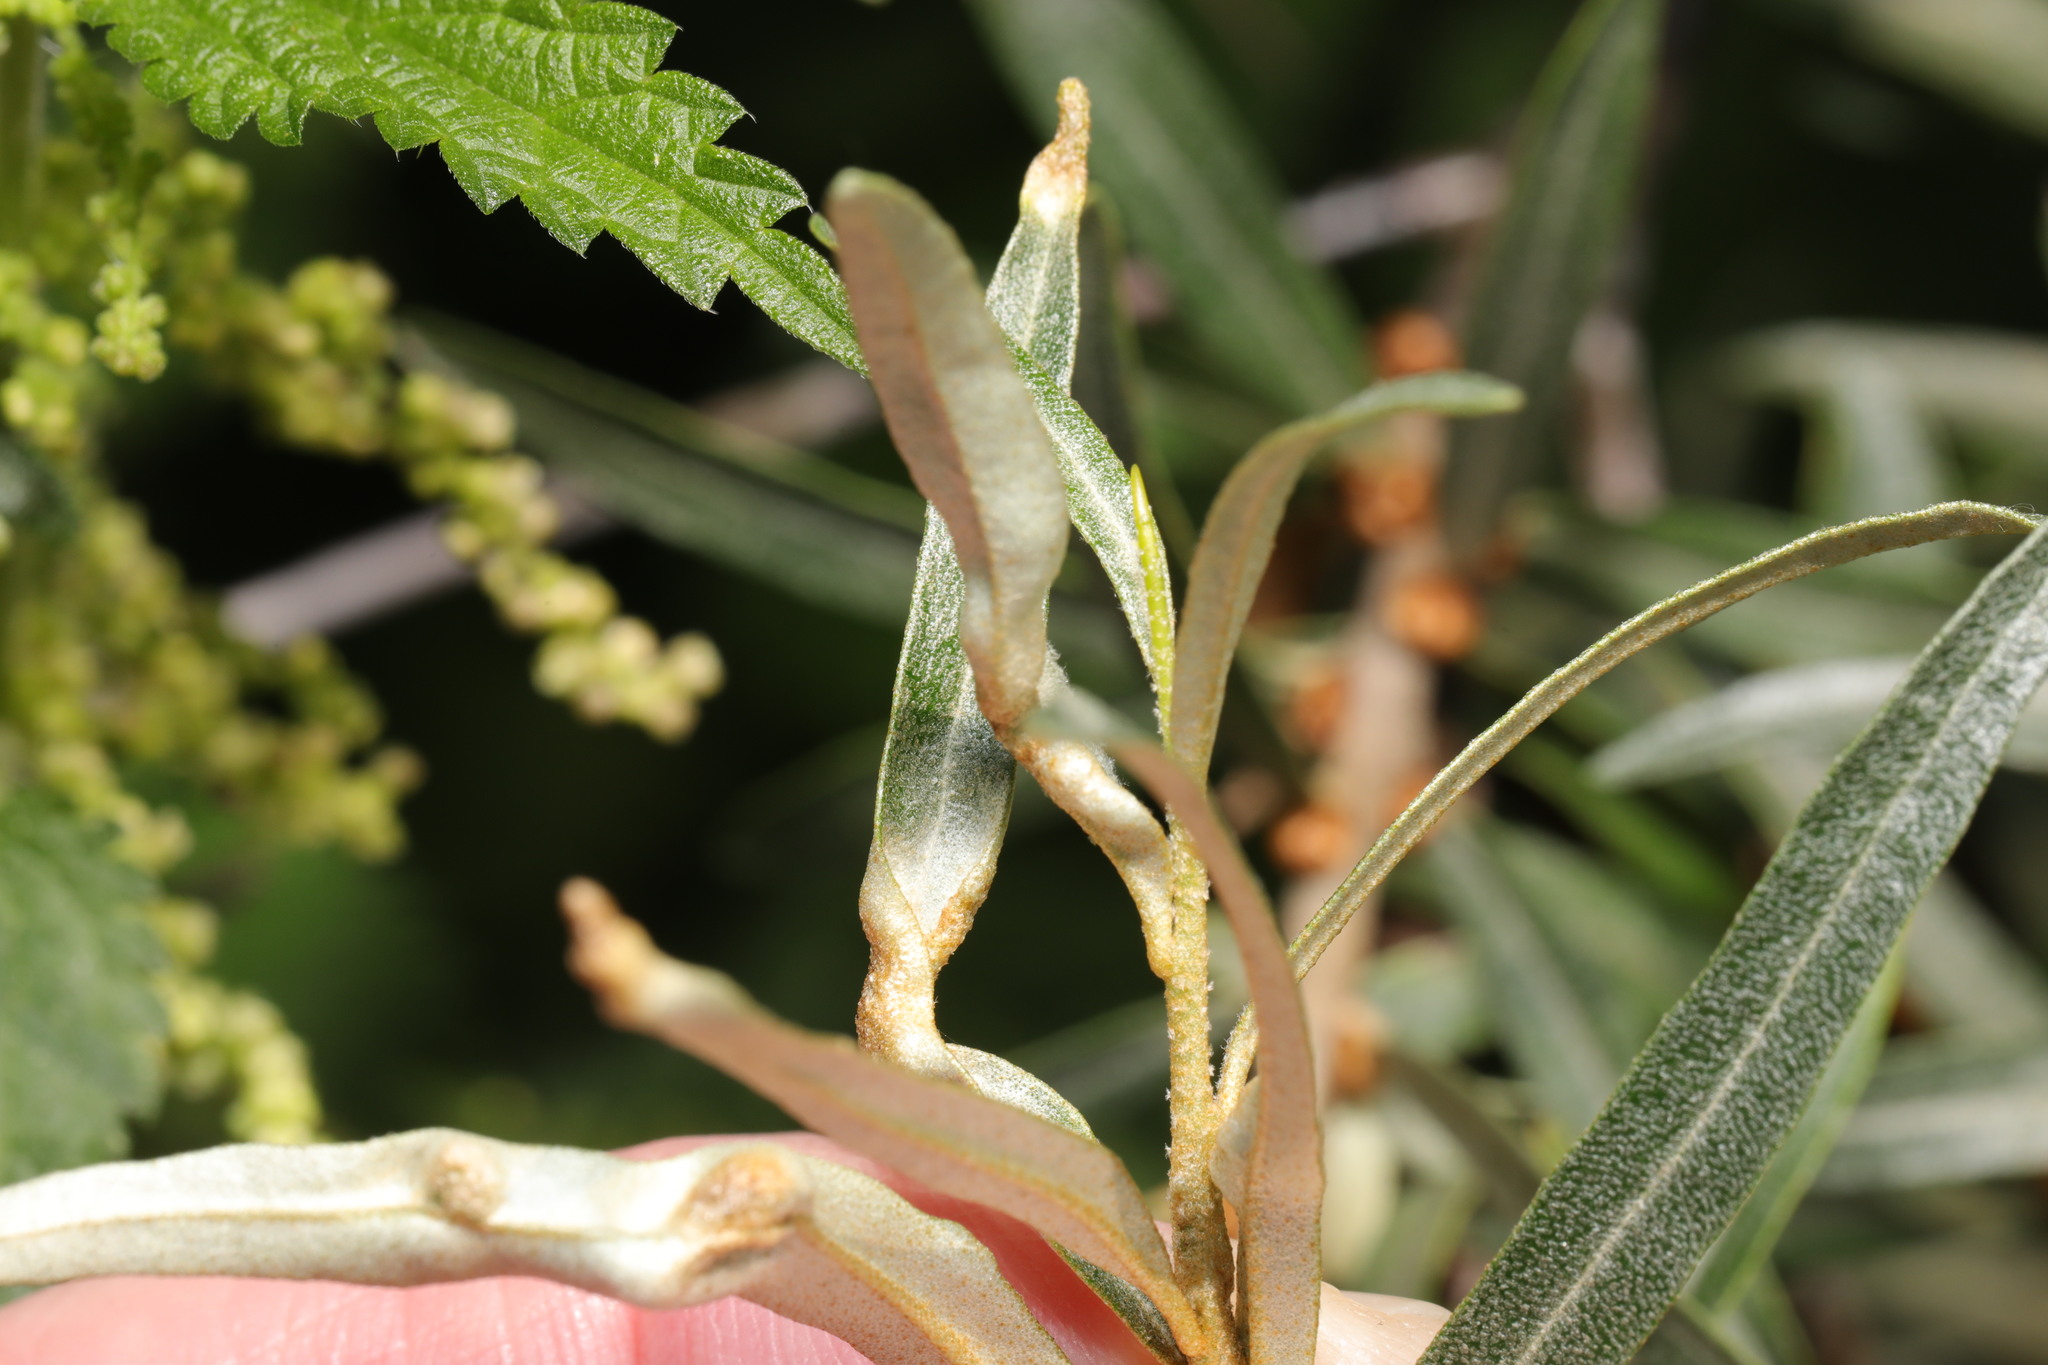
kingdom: Animalia
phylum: Arthropoda
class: Arachnida
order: Trombidiformes
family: Eriophyidae
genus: Aceria
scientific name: Aceria hippophaena
